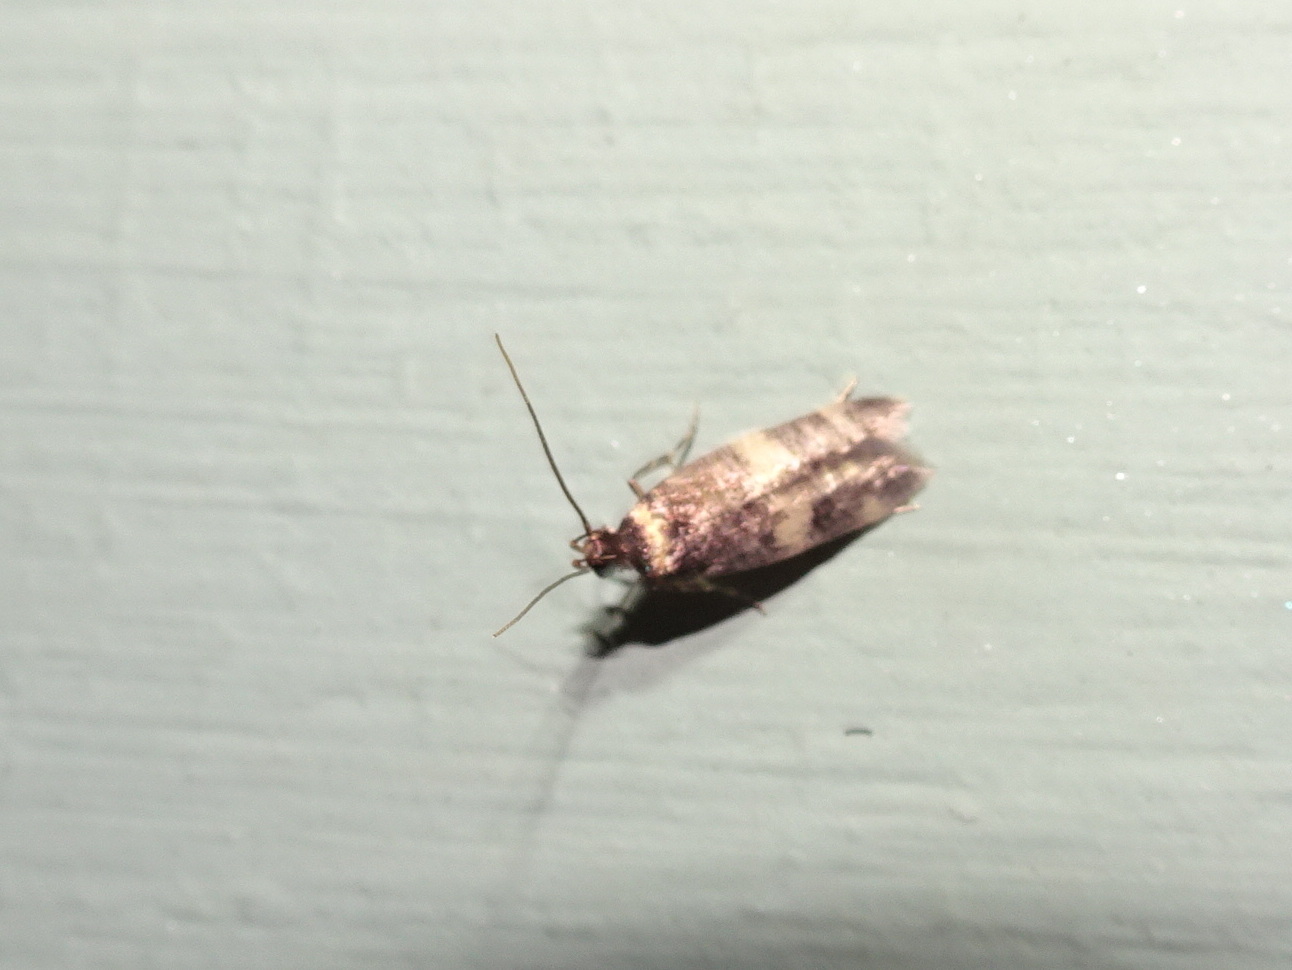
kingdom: Animalia
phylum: Arthropoda
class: Insecta
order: Lepidoptera
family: Autostichidae
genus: Oegoconia
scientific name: Oegoconia quadripuncta
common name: Four-spotted obscure
